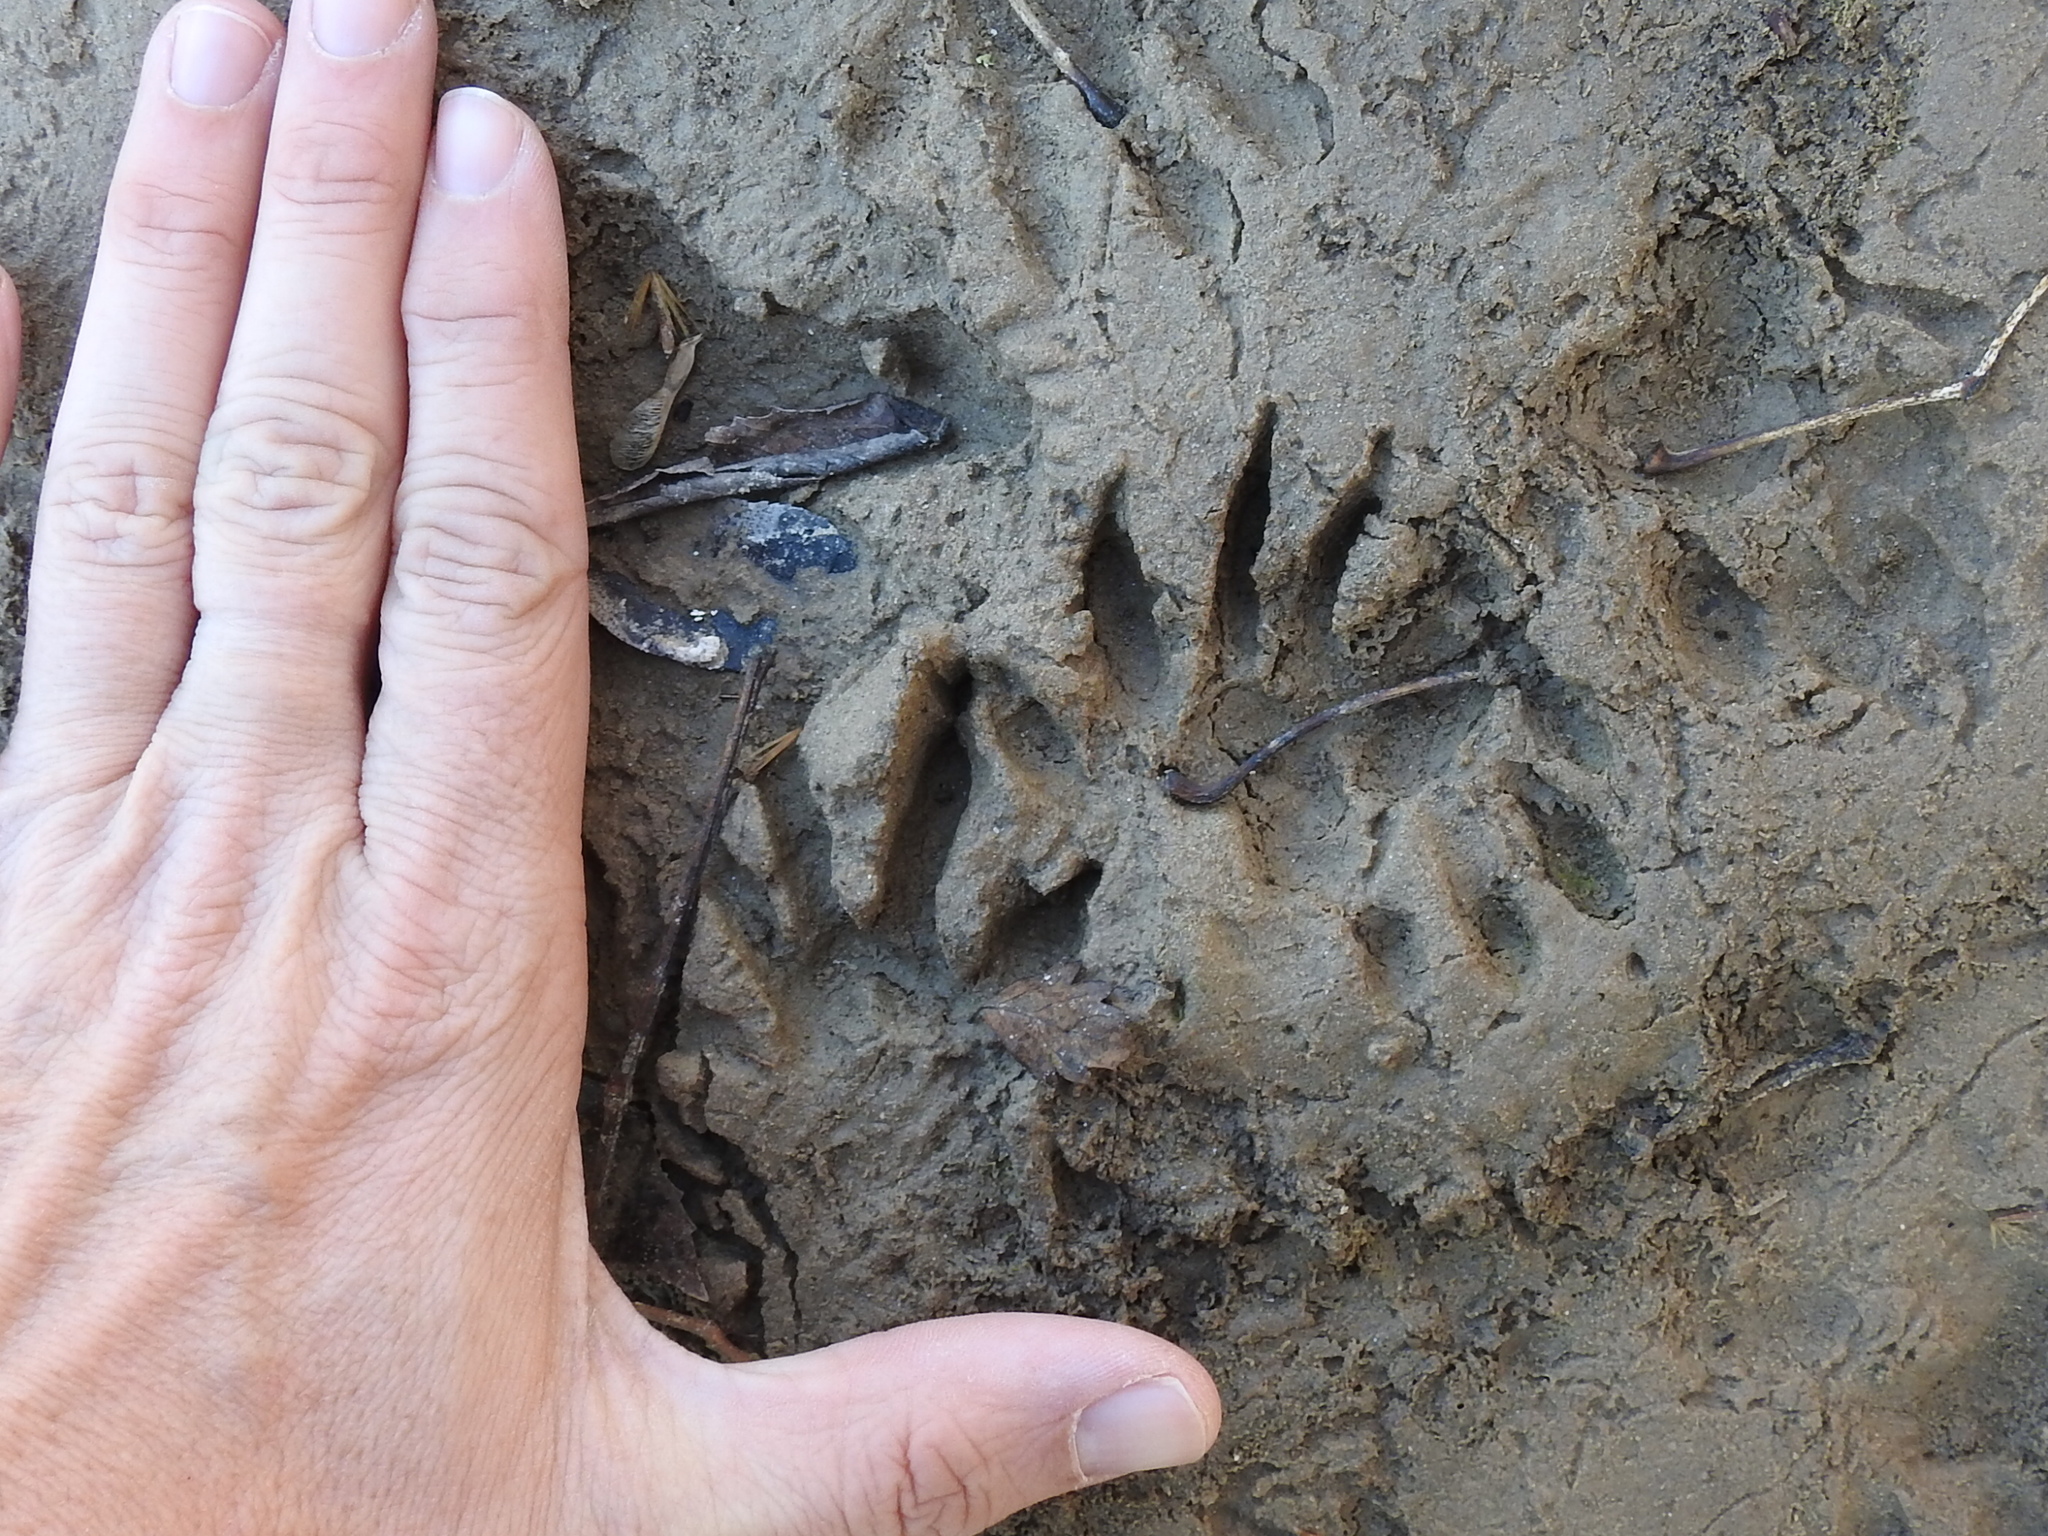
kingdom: Animalia
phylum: Chordata
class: Mammalia
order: Carnivora
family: Procyonidae
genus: Procyon
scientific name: Procyon lotor
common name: Raccoon
